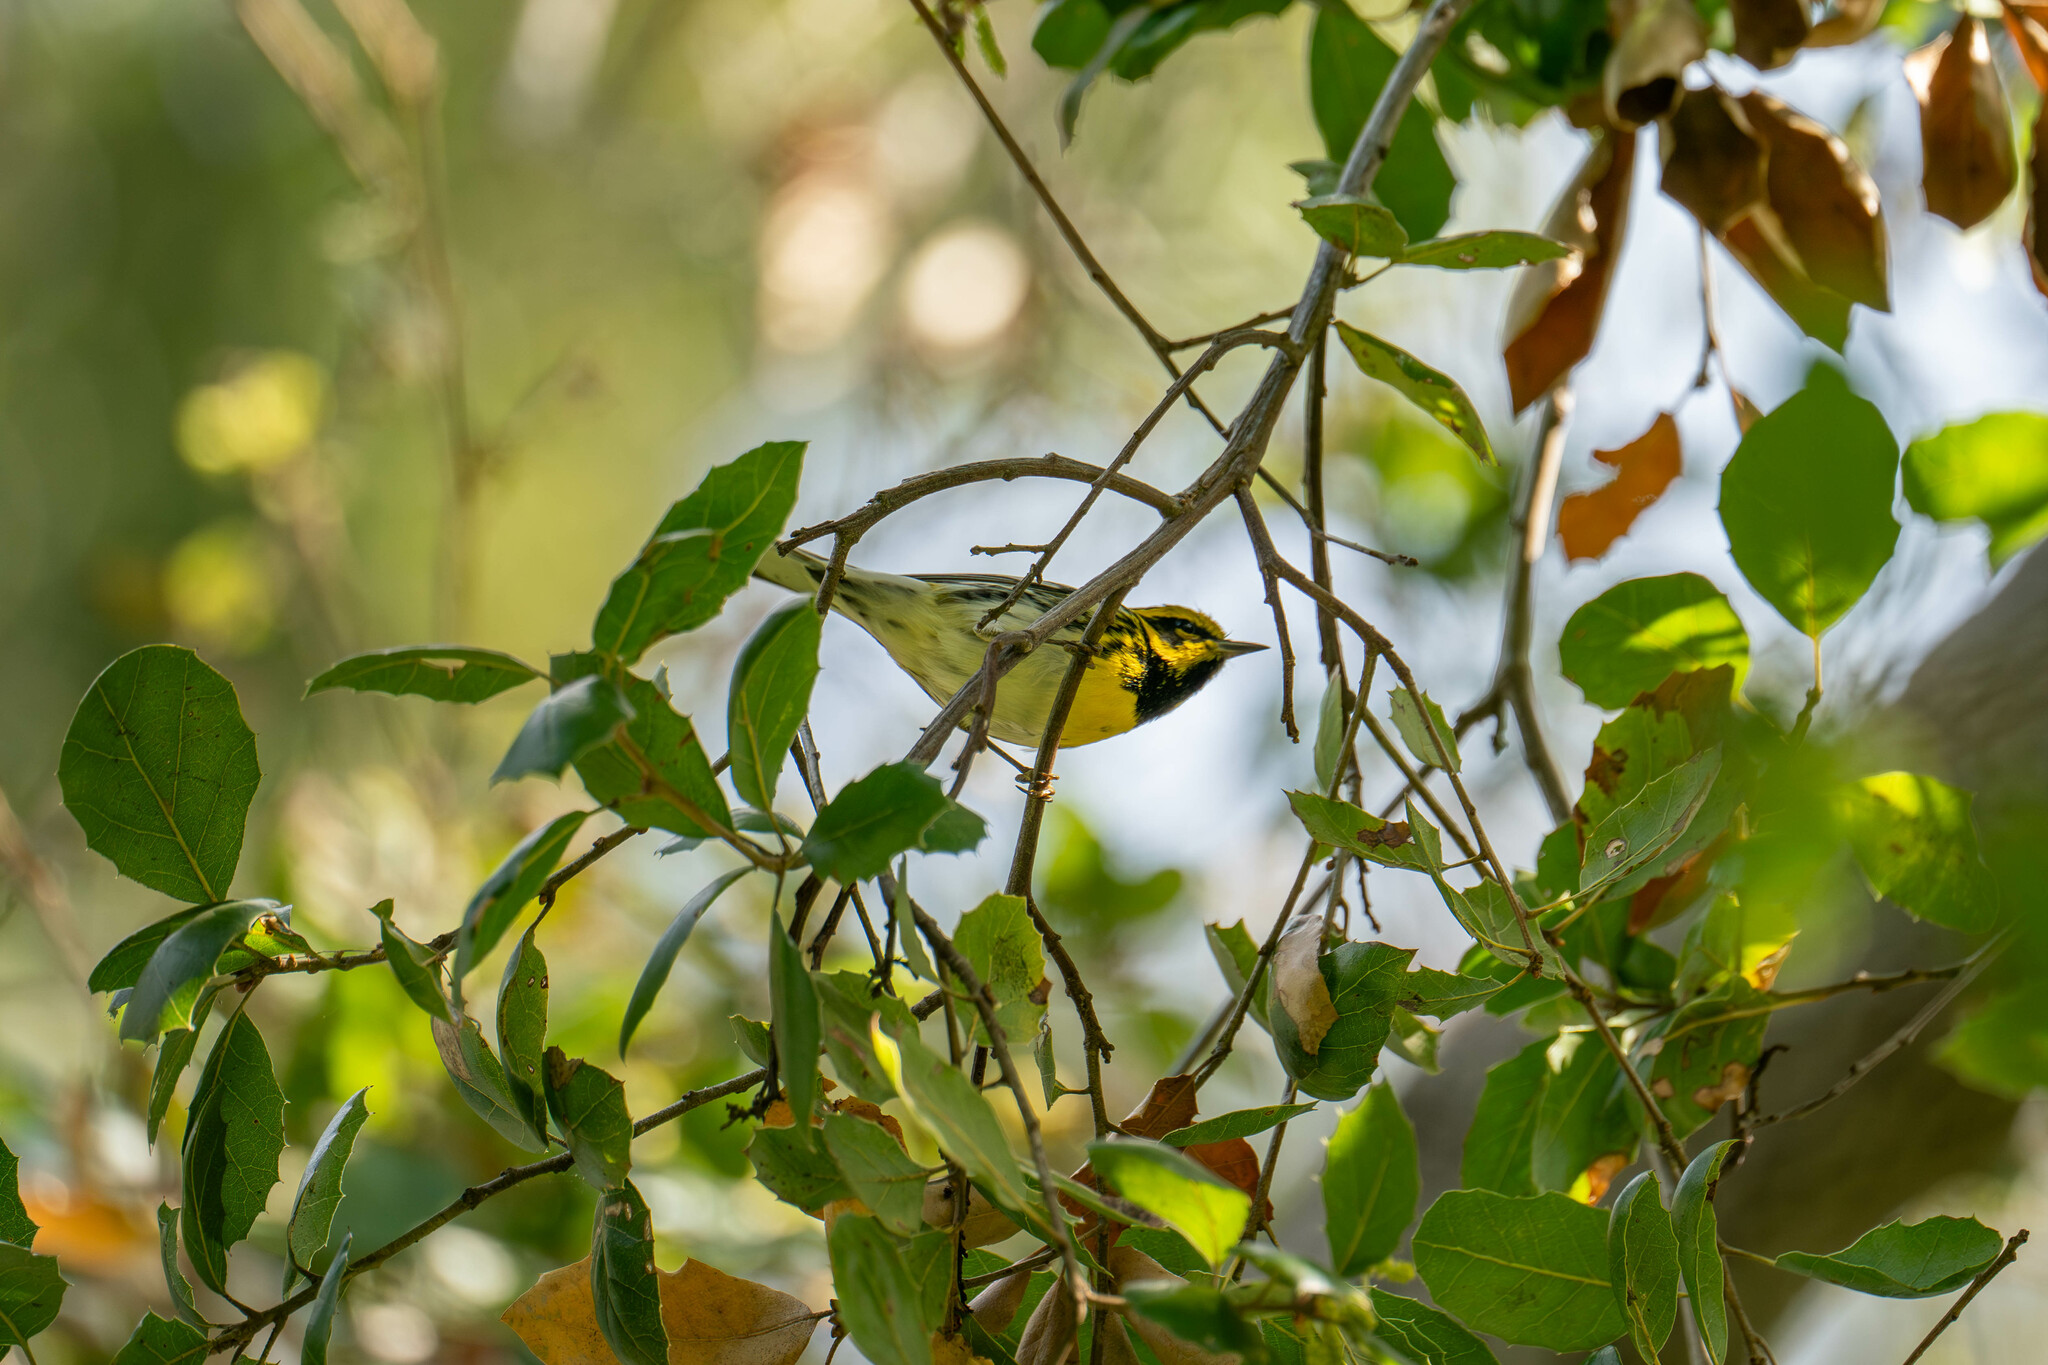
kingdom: Animalia
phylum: Chordata
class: Aves
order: Passeriformes
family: Parulidae
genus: Setophaga
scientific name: Setophaga townsendi
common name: Townsend's warbler
